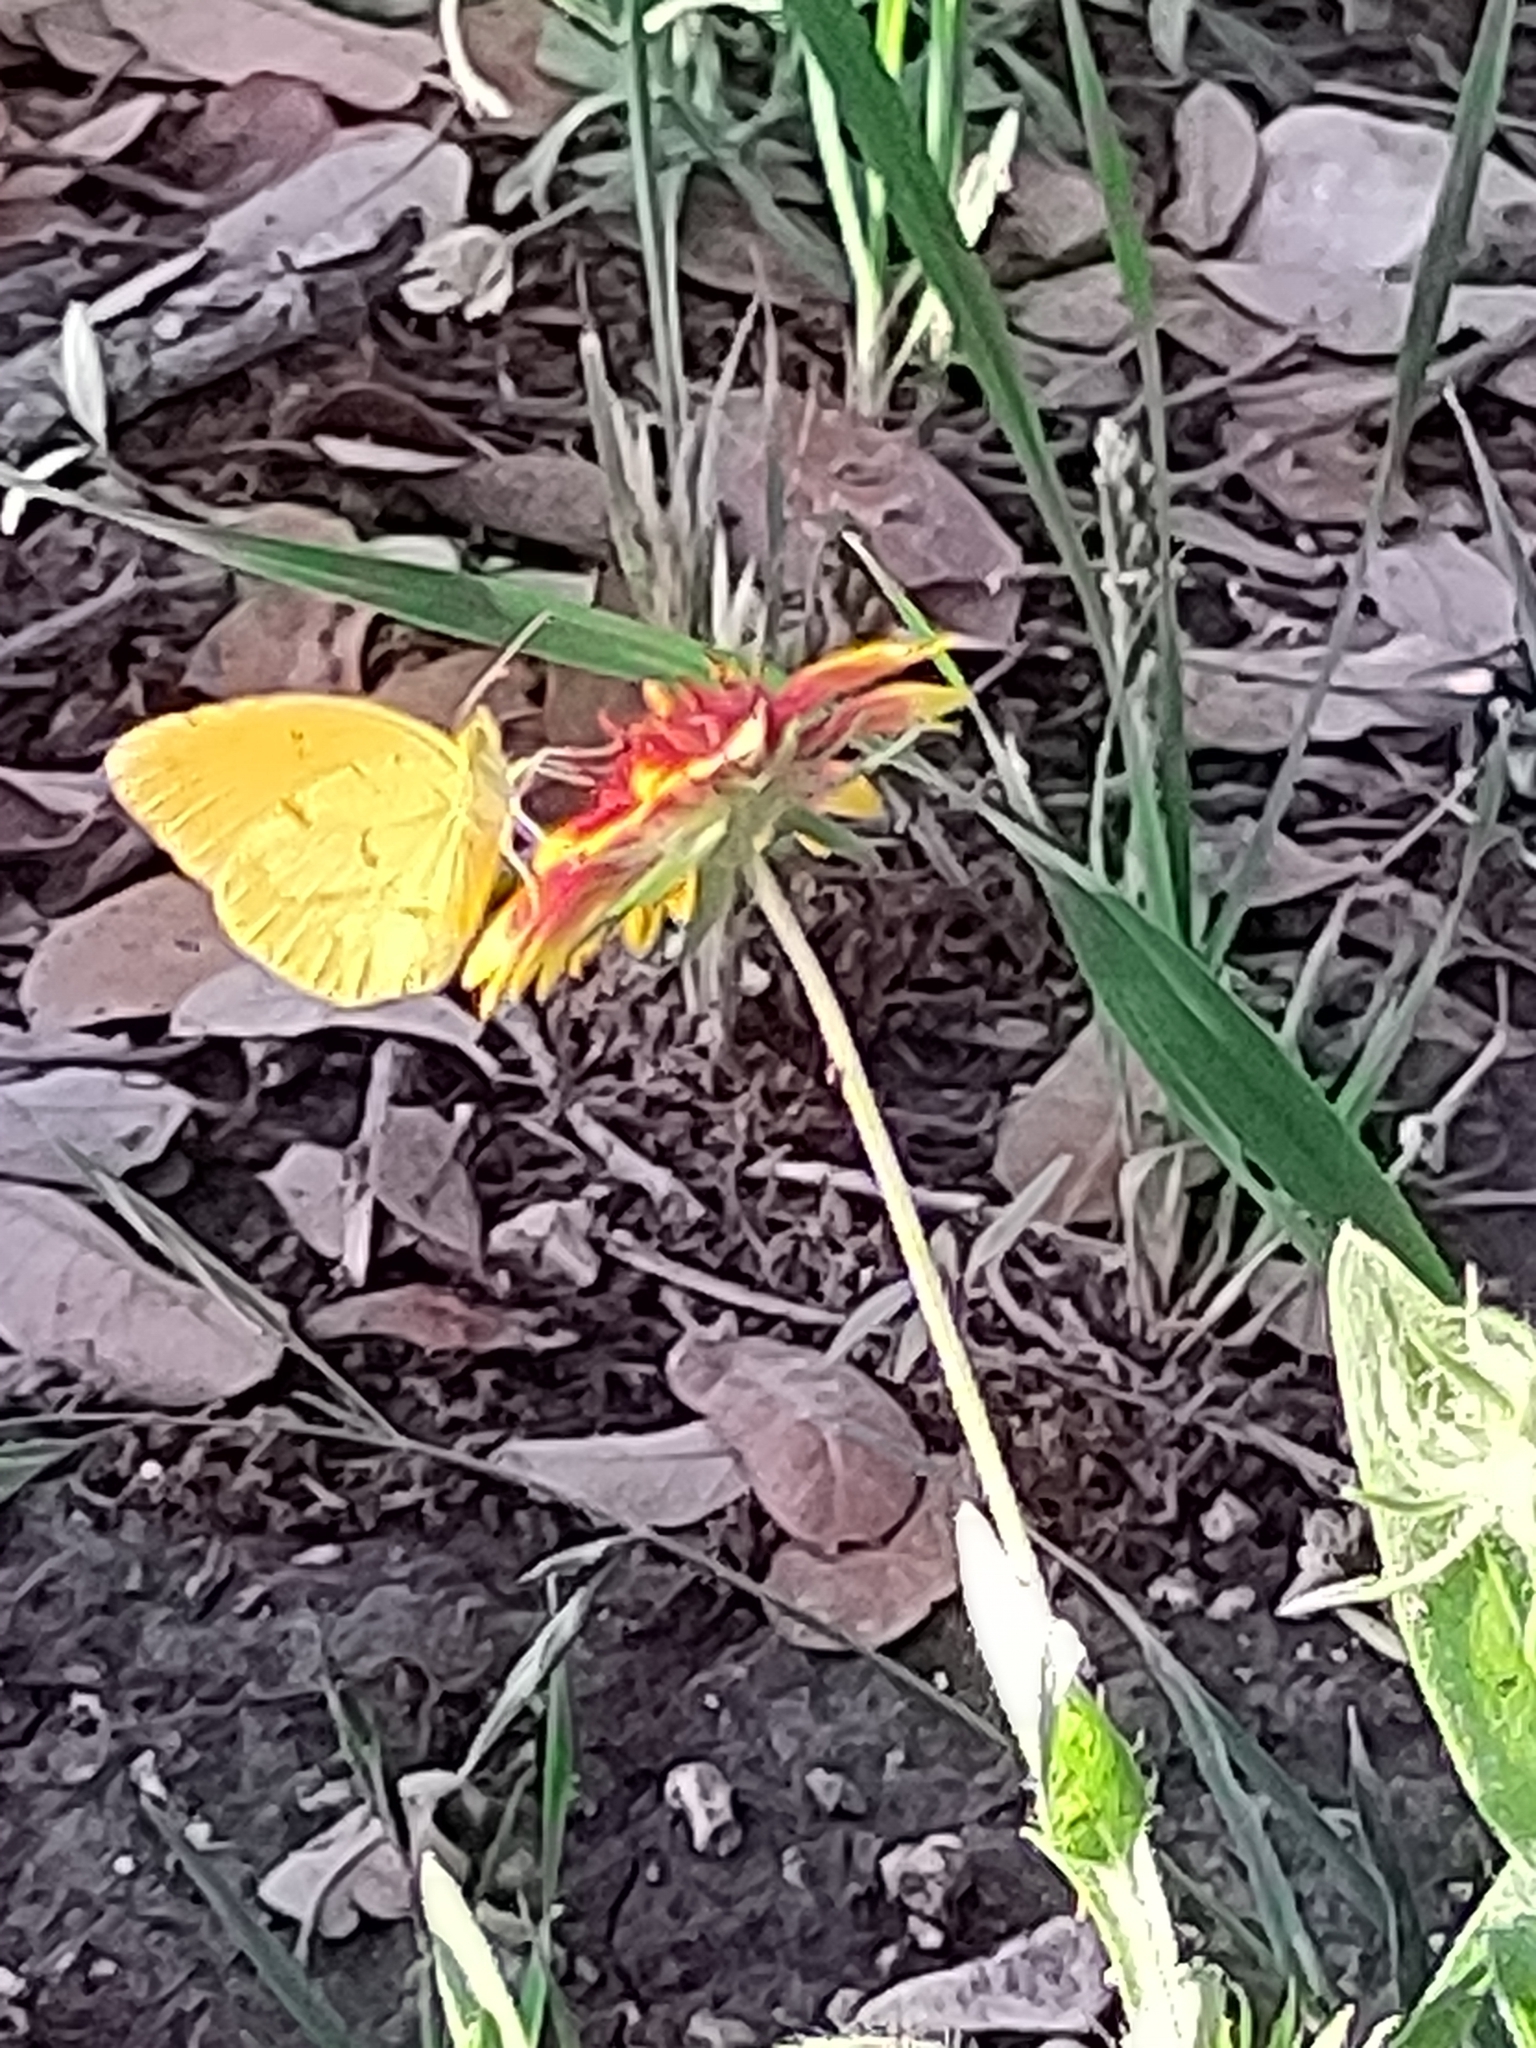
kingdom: Animalia
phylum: Arthropoda
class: Insecta
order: Lepidoptera
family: Pieridae
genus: Abaeis
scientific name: Abaeis nicippe
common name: Sleepy orange
